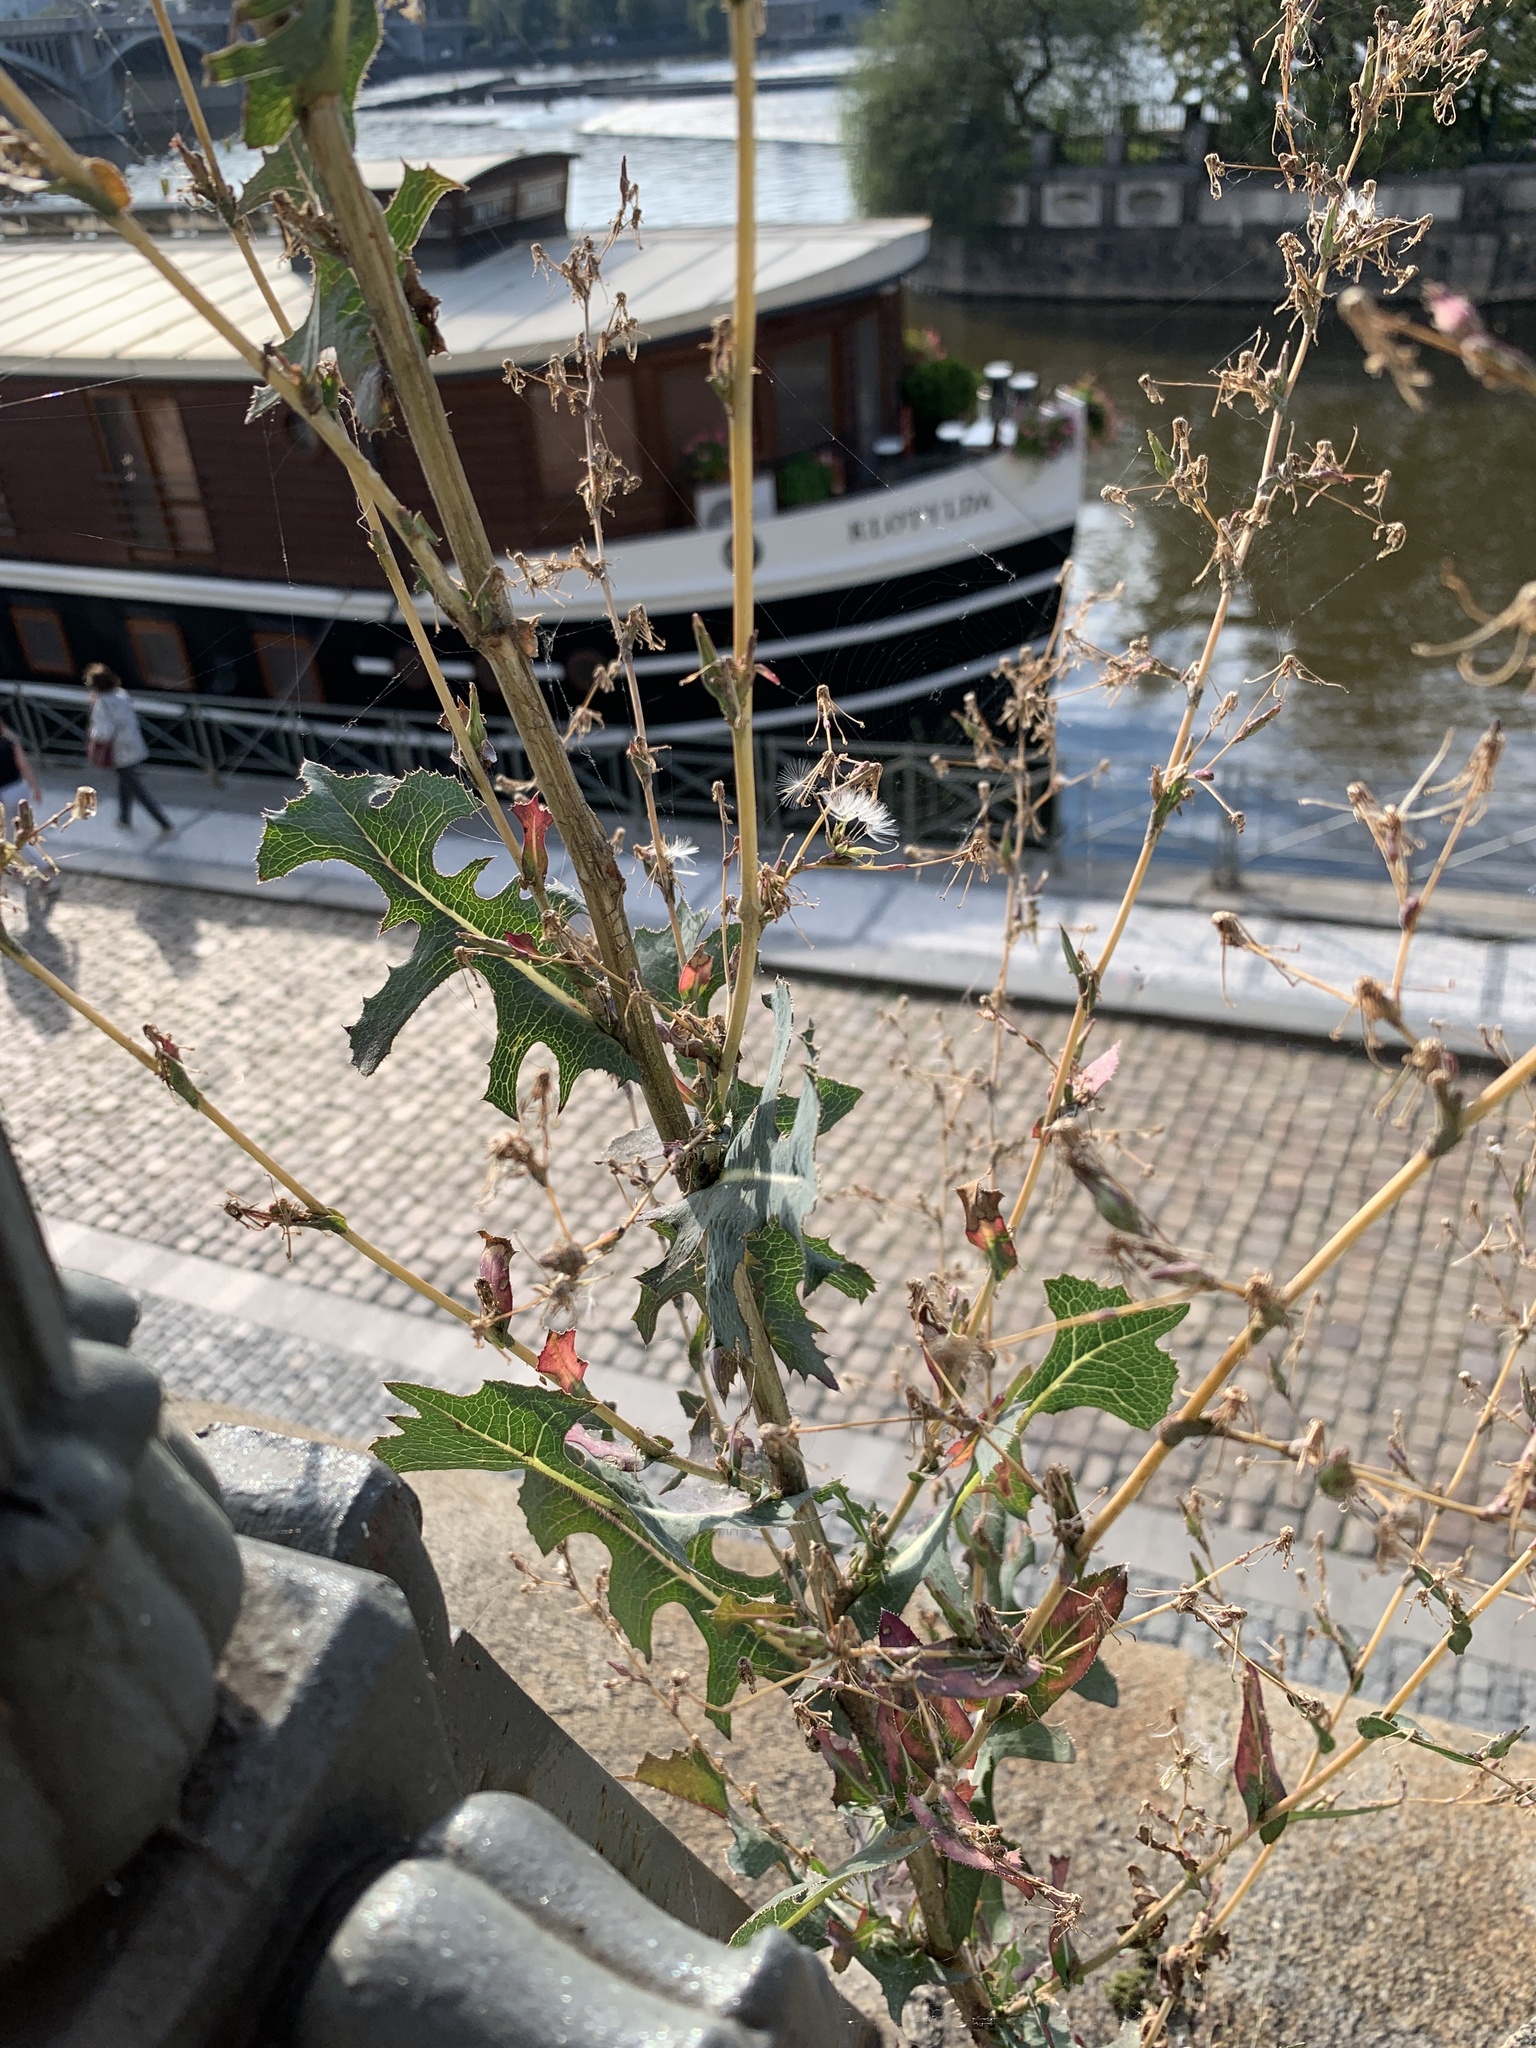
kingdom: Plantae
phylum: Tracheophyta
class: Magnoliopsida
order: Asterales
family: Asteraceae
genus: Lactuca
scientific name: Lactuca serriola
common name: Prickly lettuce
